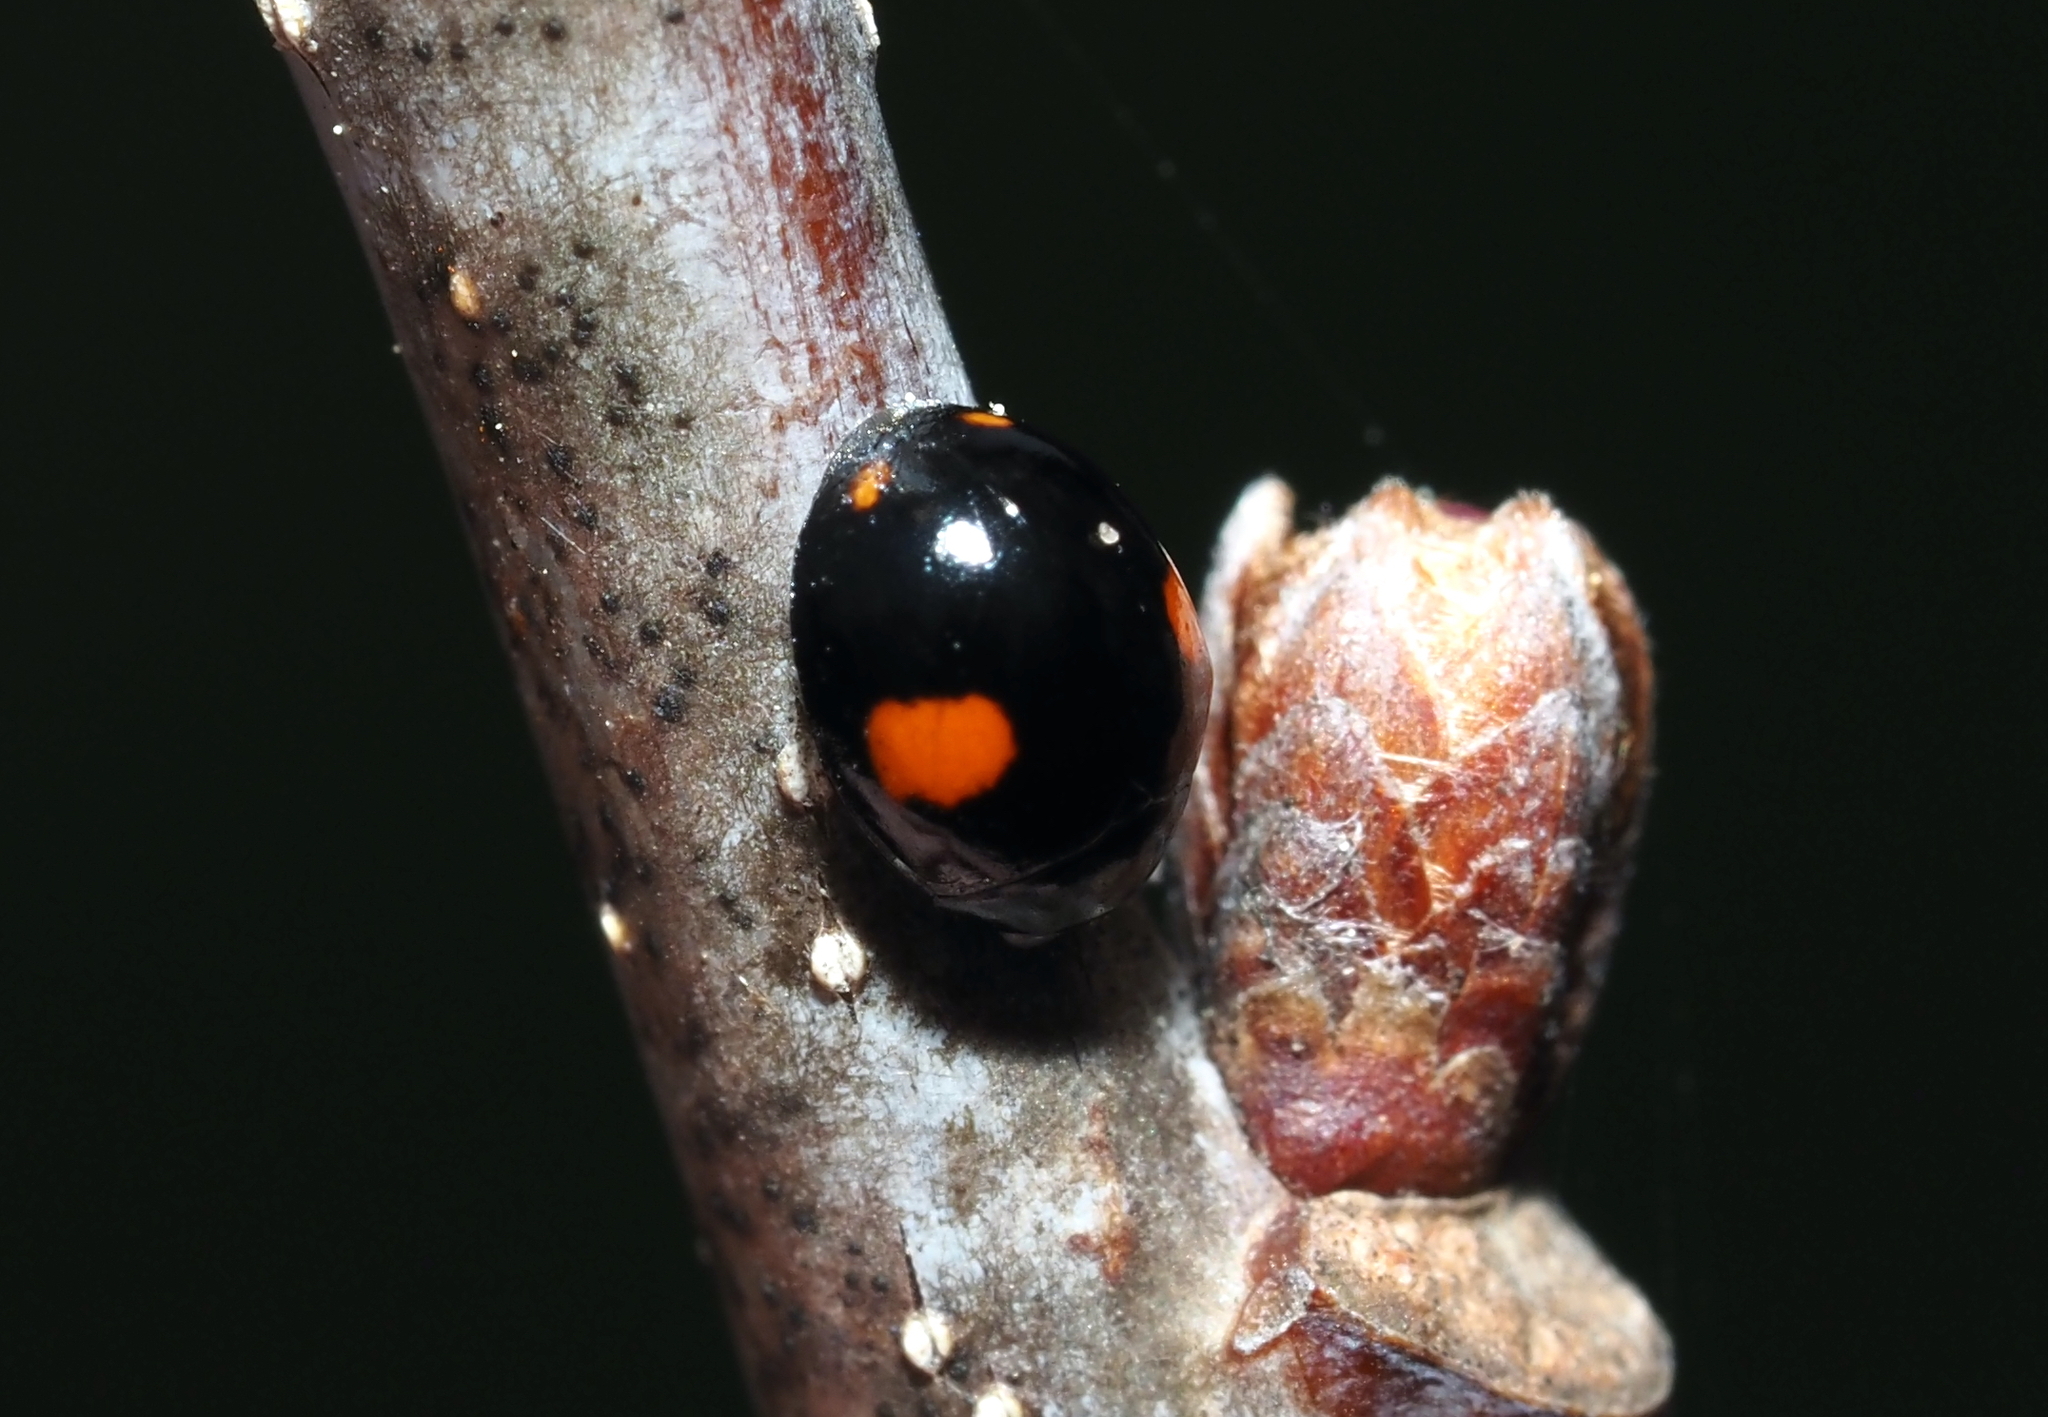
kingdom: Animalia
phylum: Arthropoda
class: Insecta
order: Coleoptera
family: Coccinellidae
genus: Chilocorus
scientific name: Chilocorus stigma
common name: Twicestabbed lady beetle
